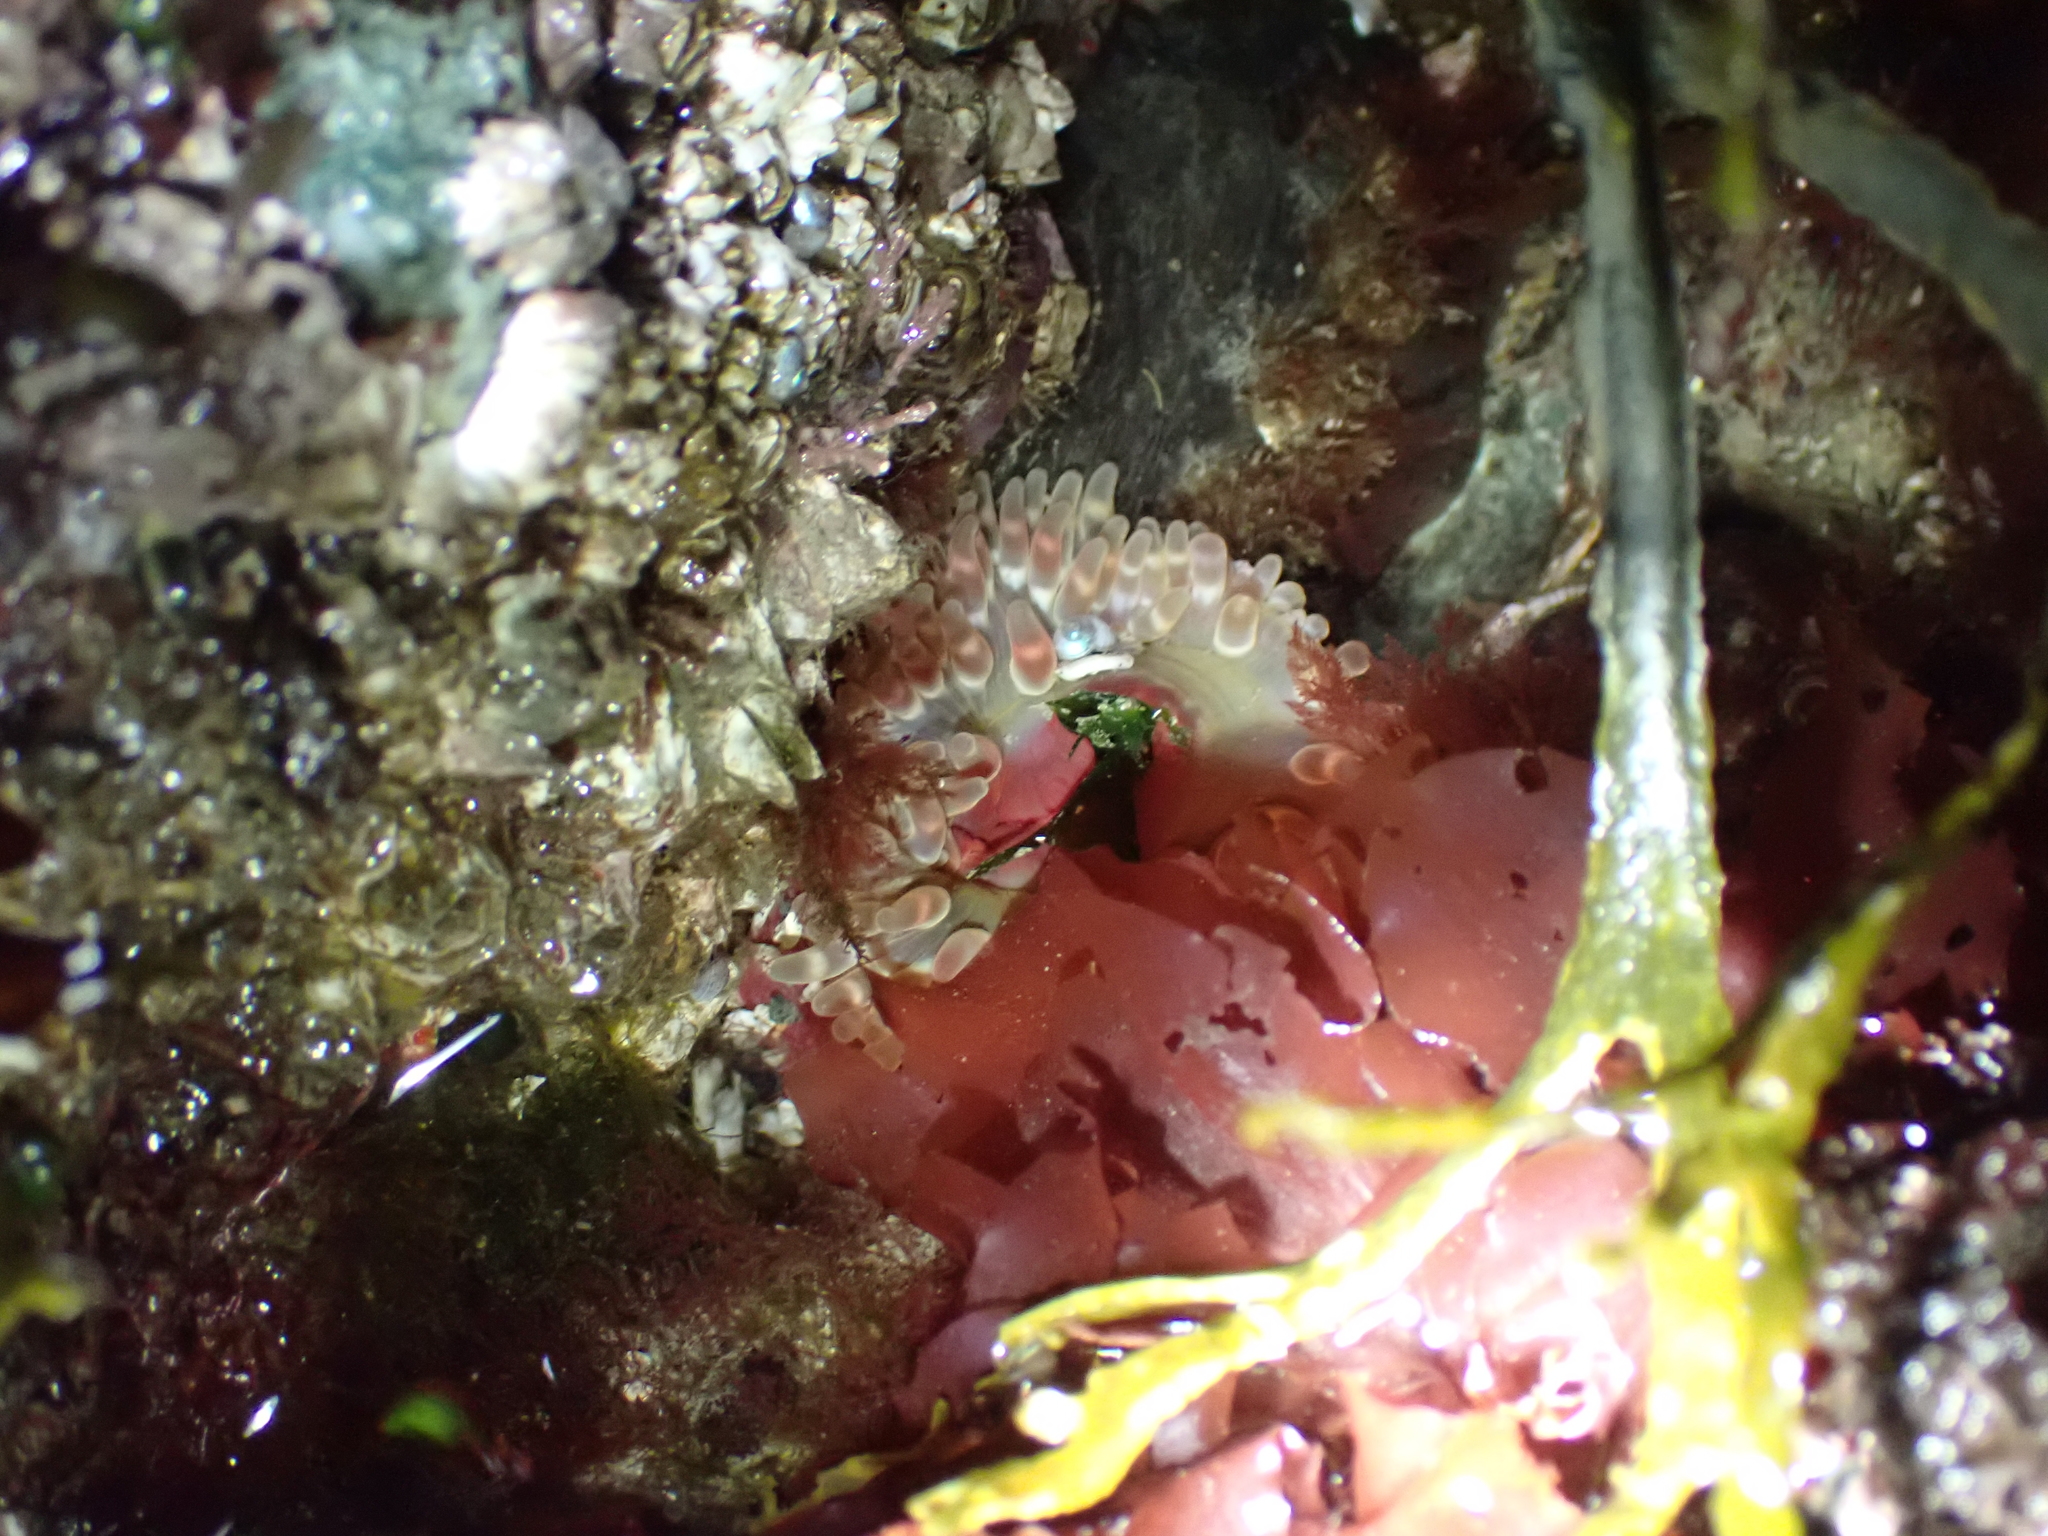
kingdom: Animalia
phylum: Cnidaria
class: Anthozoa
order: Actiniaria
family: Actiniidae
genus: Urticina
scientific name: Urticina clandestina
